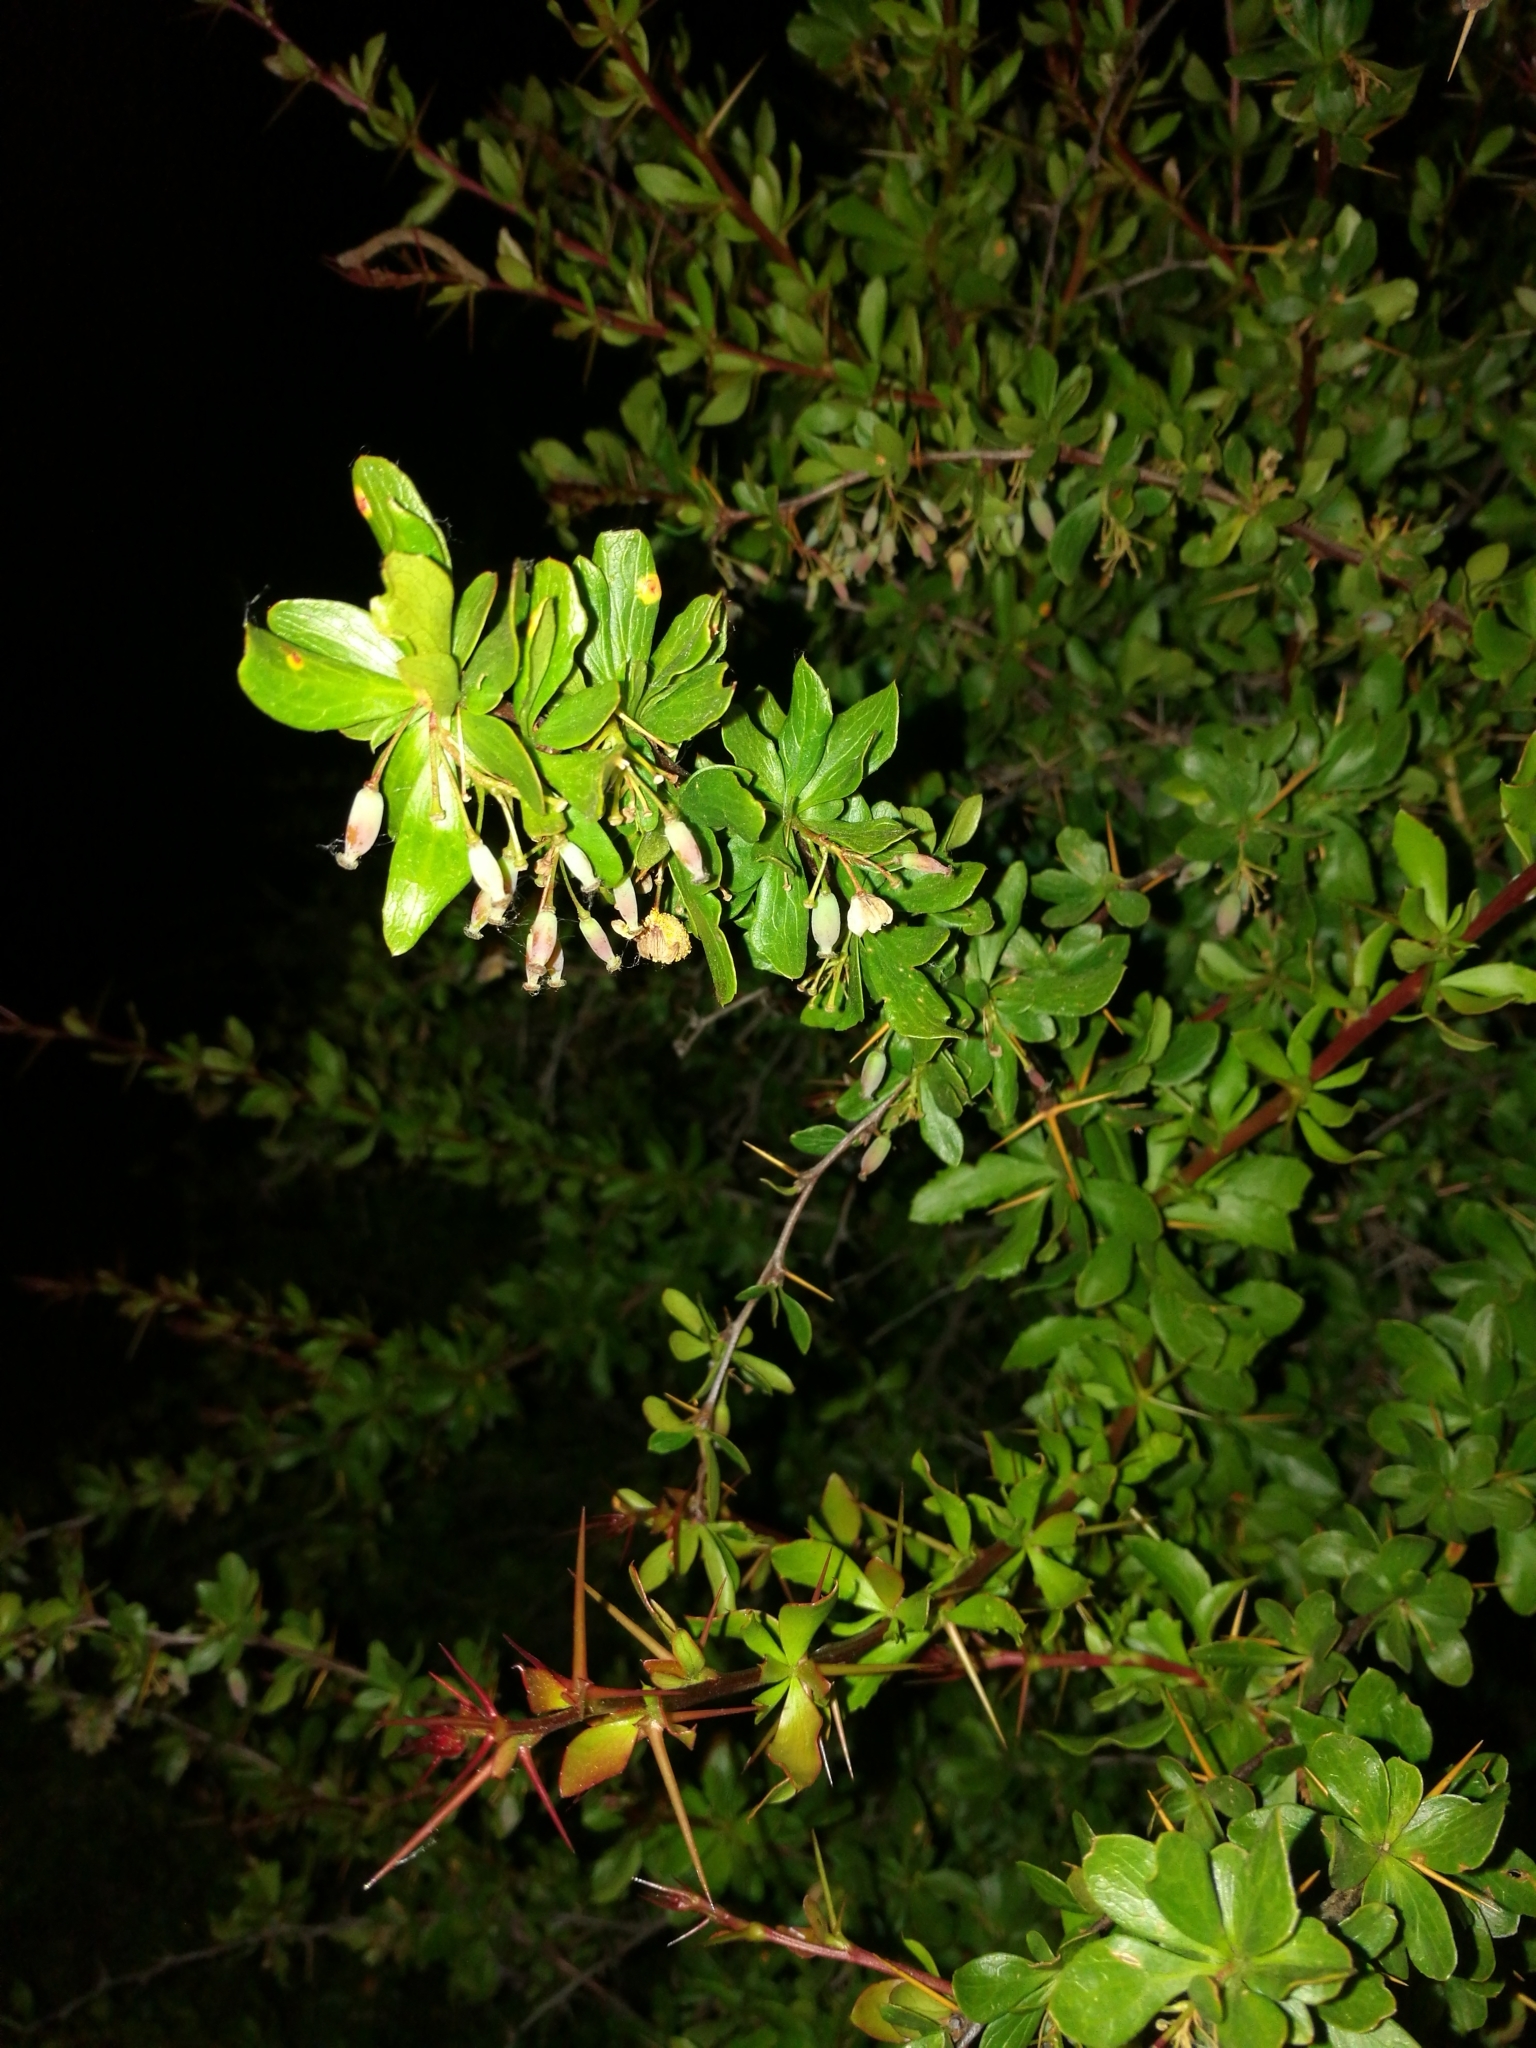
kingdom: Plantae
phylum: Tracheophyta
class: Magnoliopsida
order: Ranunculales
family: Berberidaceae
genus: Berberis
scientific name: Berberis hispanica
